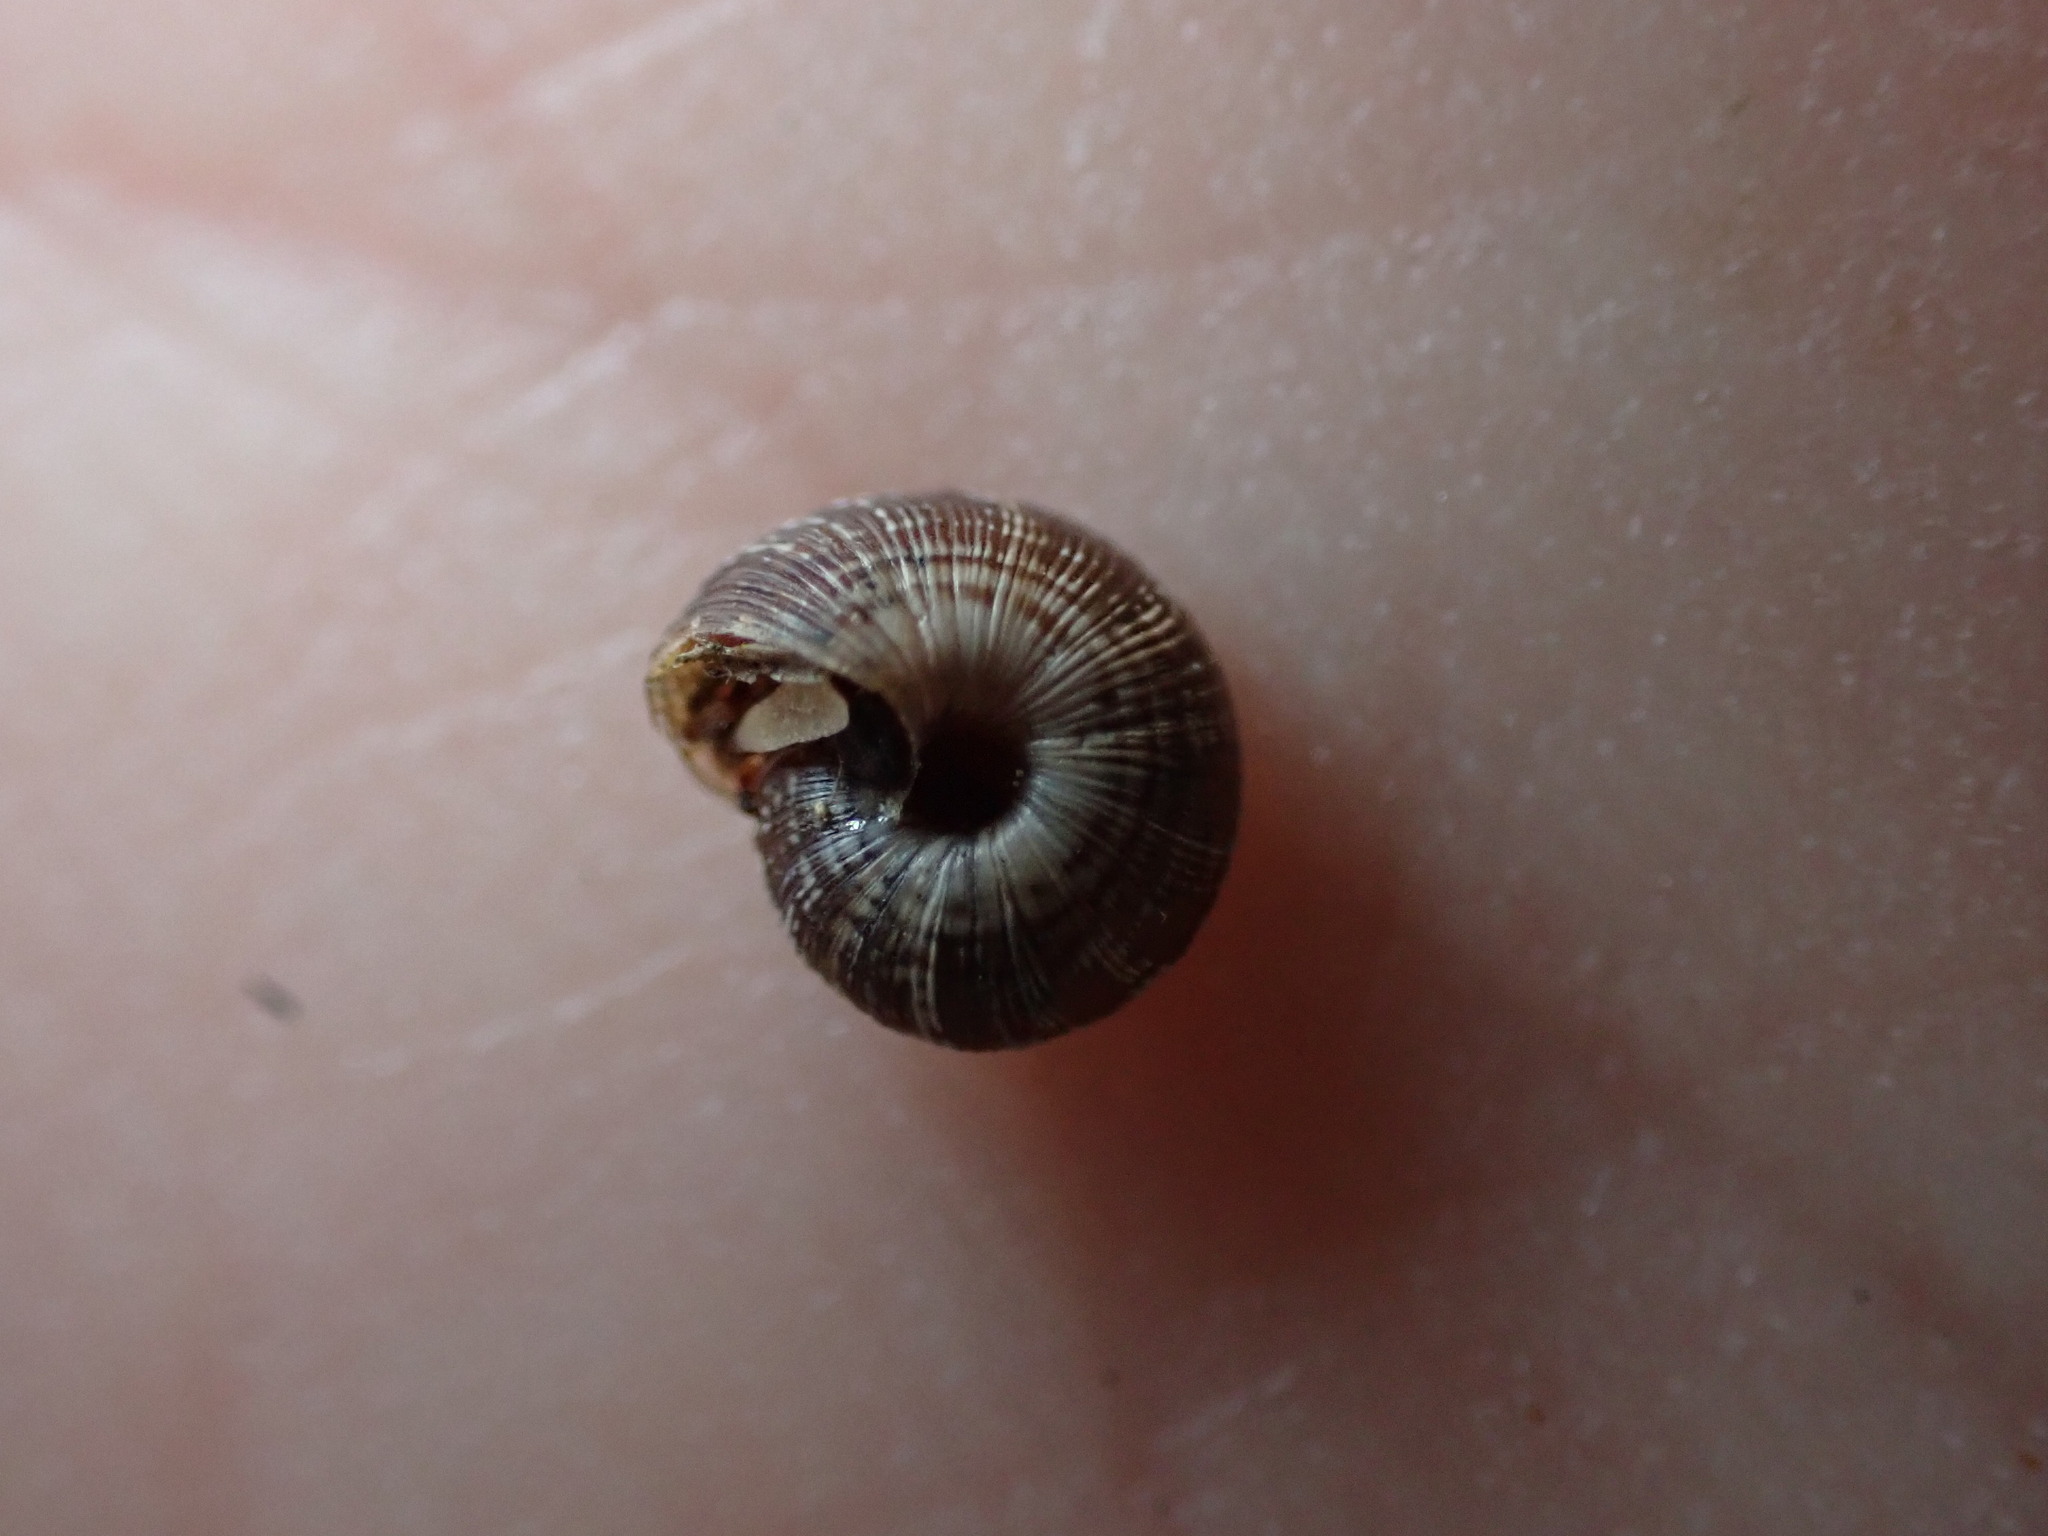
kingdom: Animalia
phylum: Mollusca
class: Gastropoda
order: Stylommatophora
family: Geomitridae
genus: Candidula
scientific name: Candidula rugosiuscula
